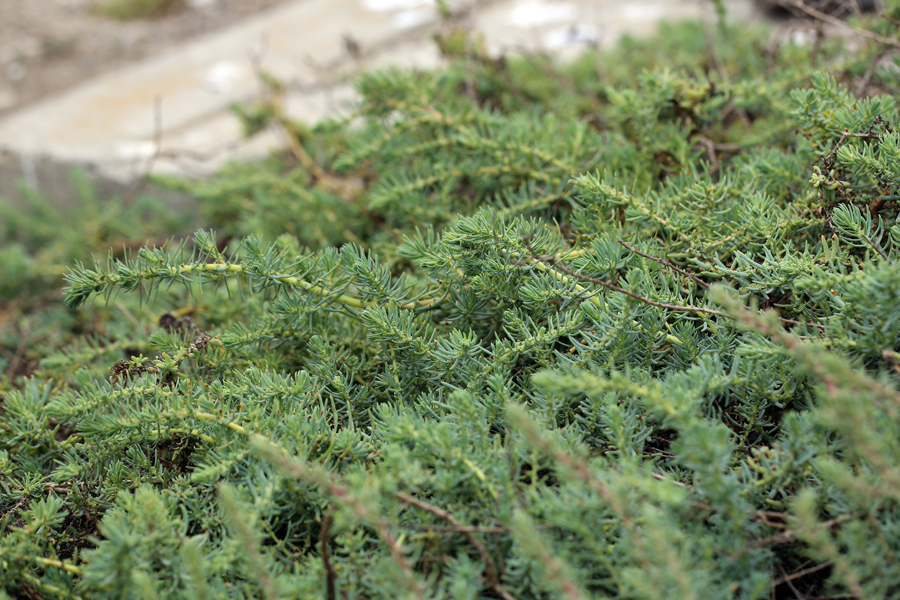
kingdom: Plantae
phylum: Tracheophyta
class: Magnoliopsida
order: Caryophyllales
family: Amaranthaceae
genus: Suaeda
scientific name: Suaeda taxifolia
